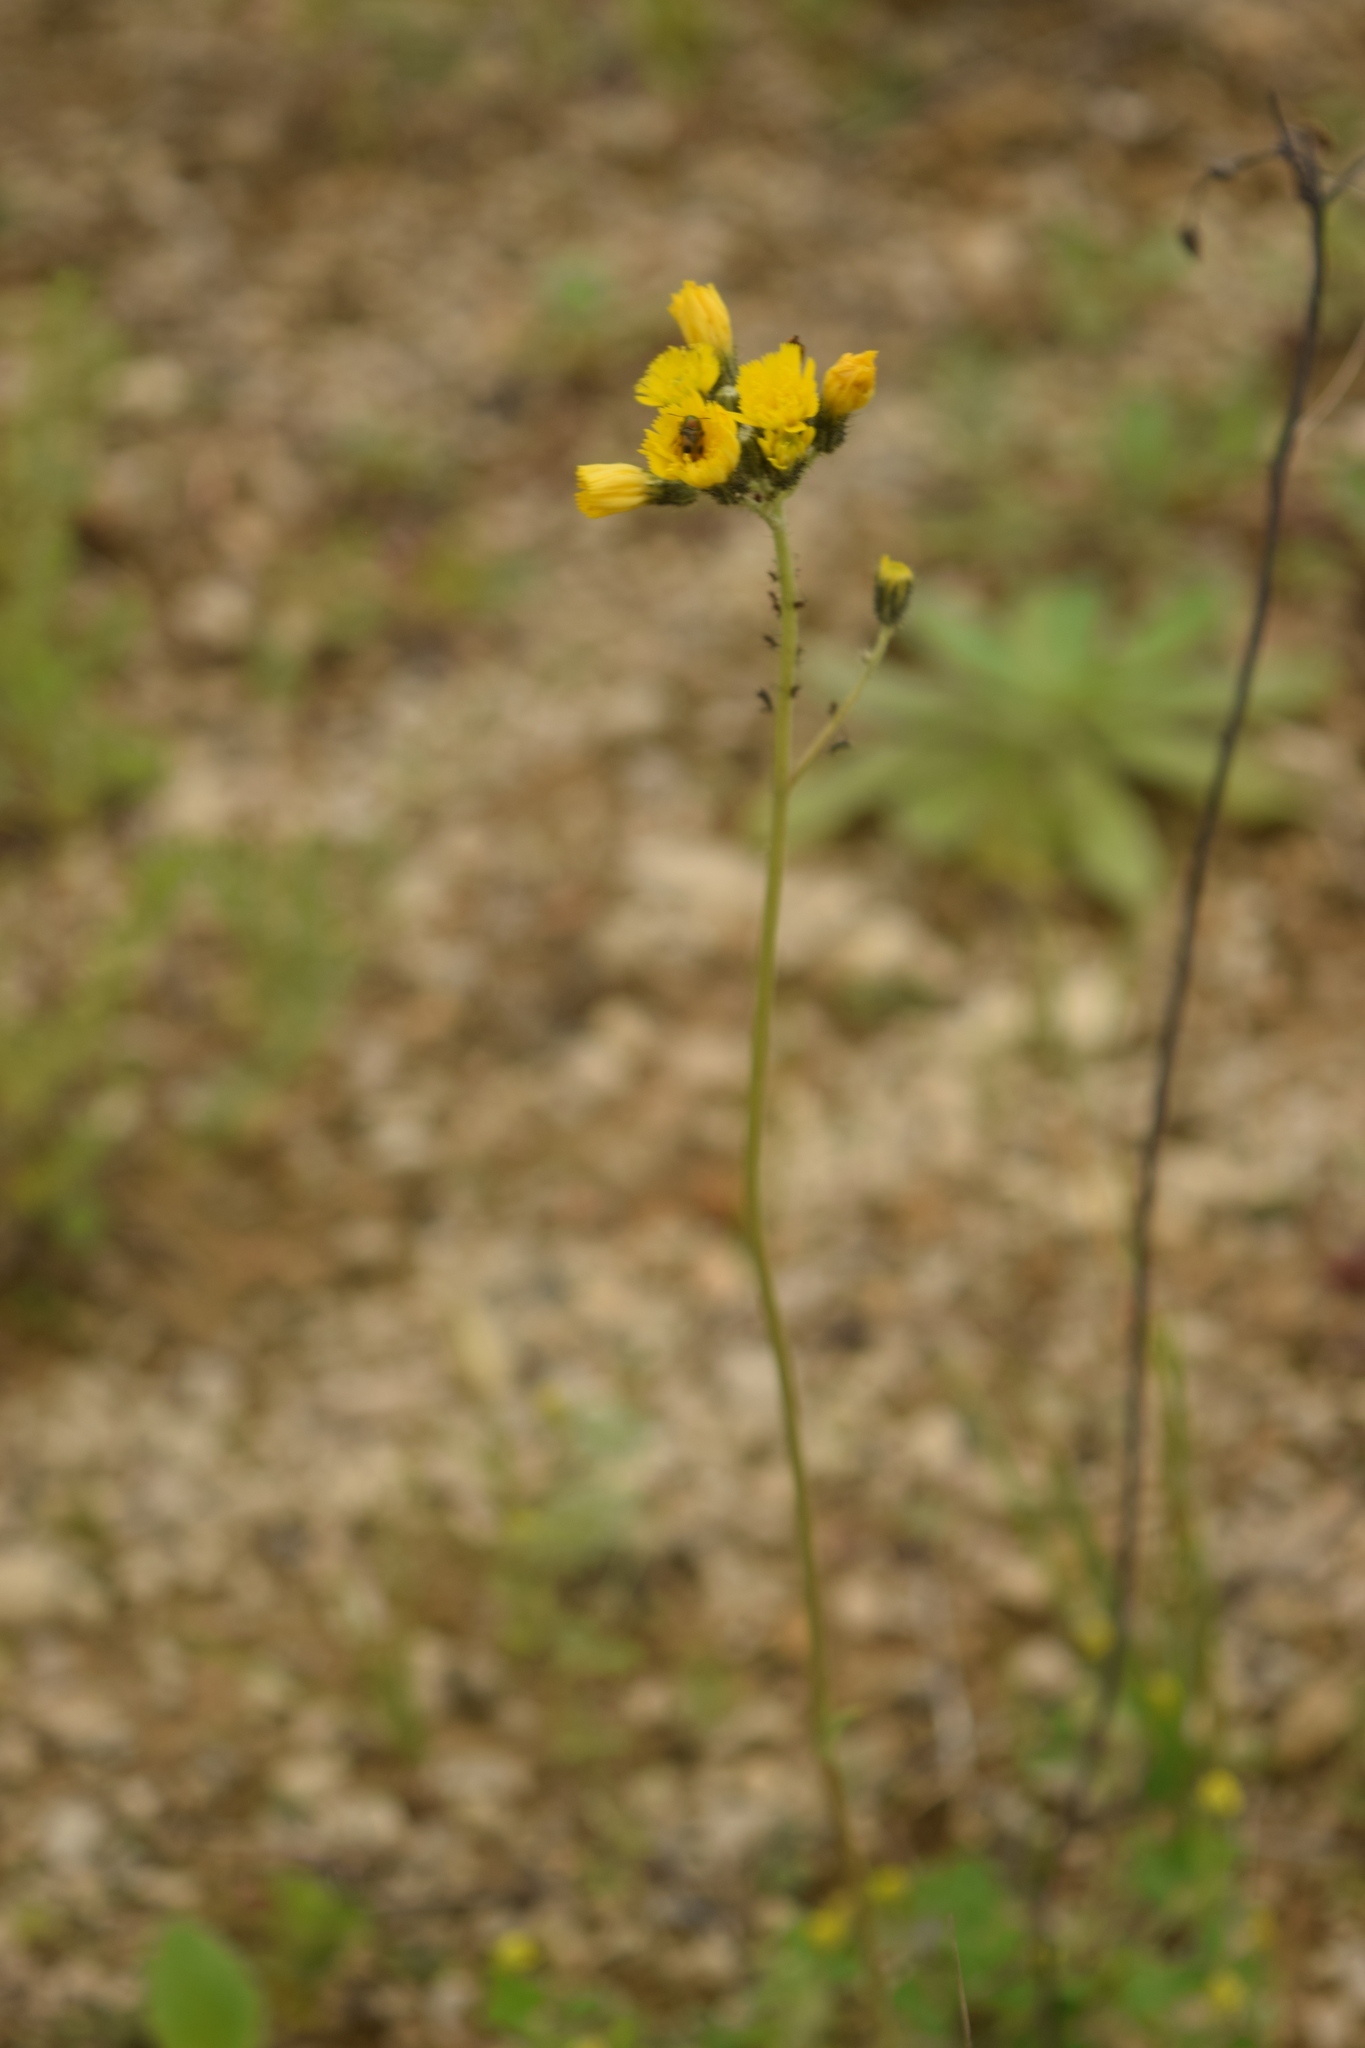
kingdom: Plantae
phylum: Tracheophyta
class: Magnoliopsida
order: Asterales
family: Asteraceae
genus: Pilosella
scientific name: Pilosella
